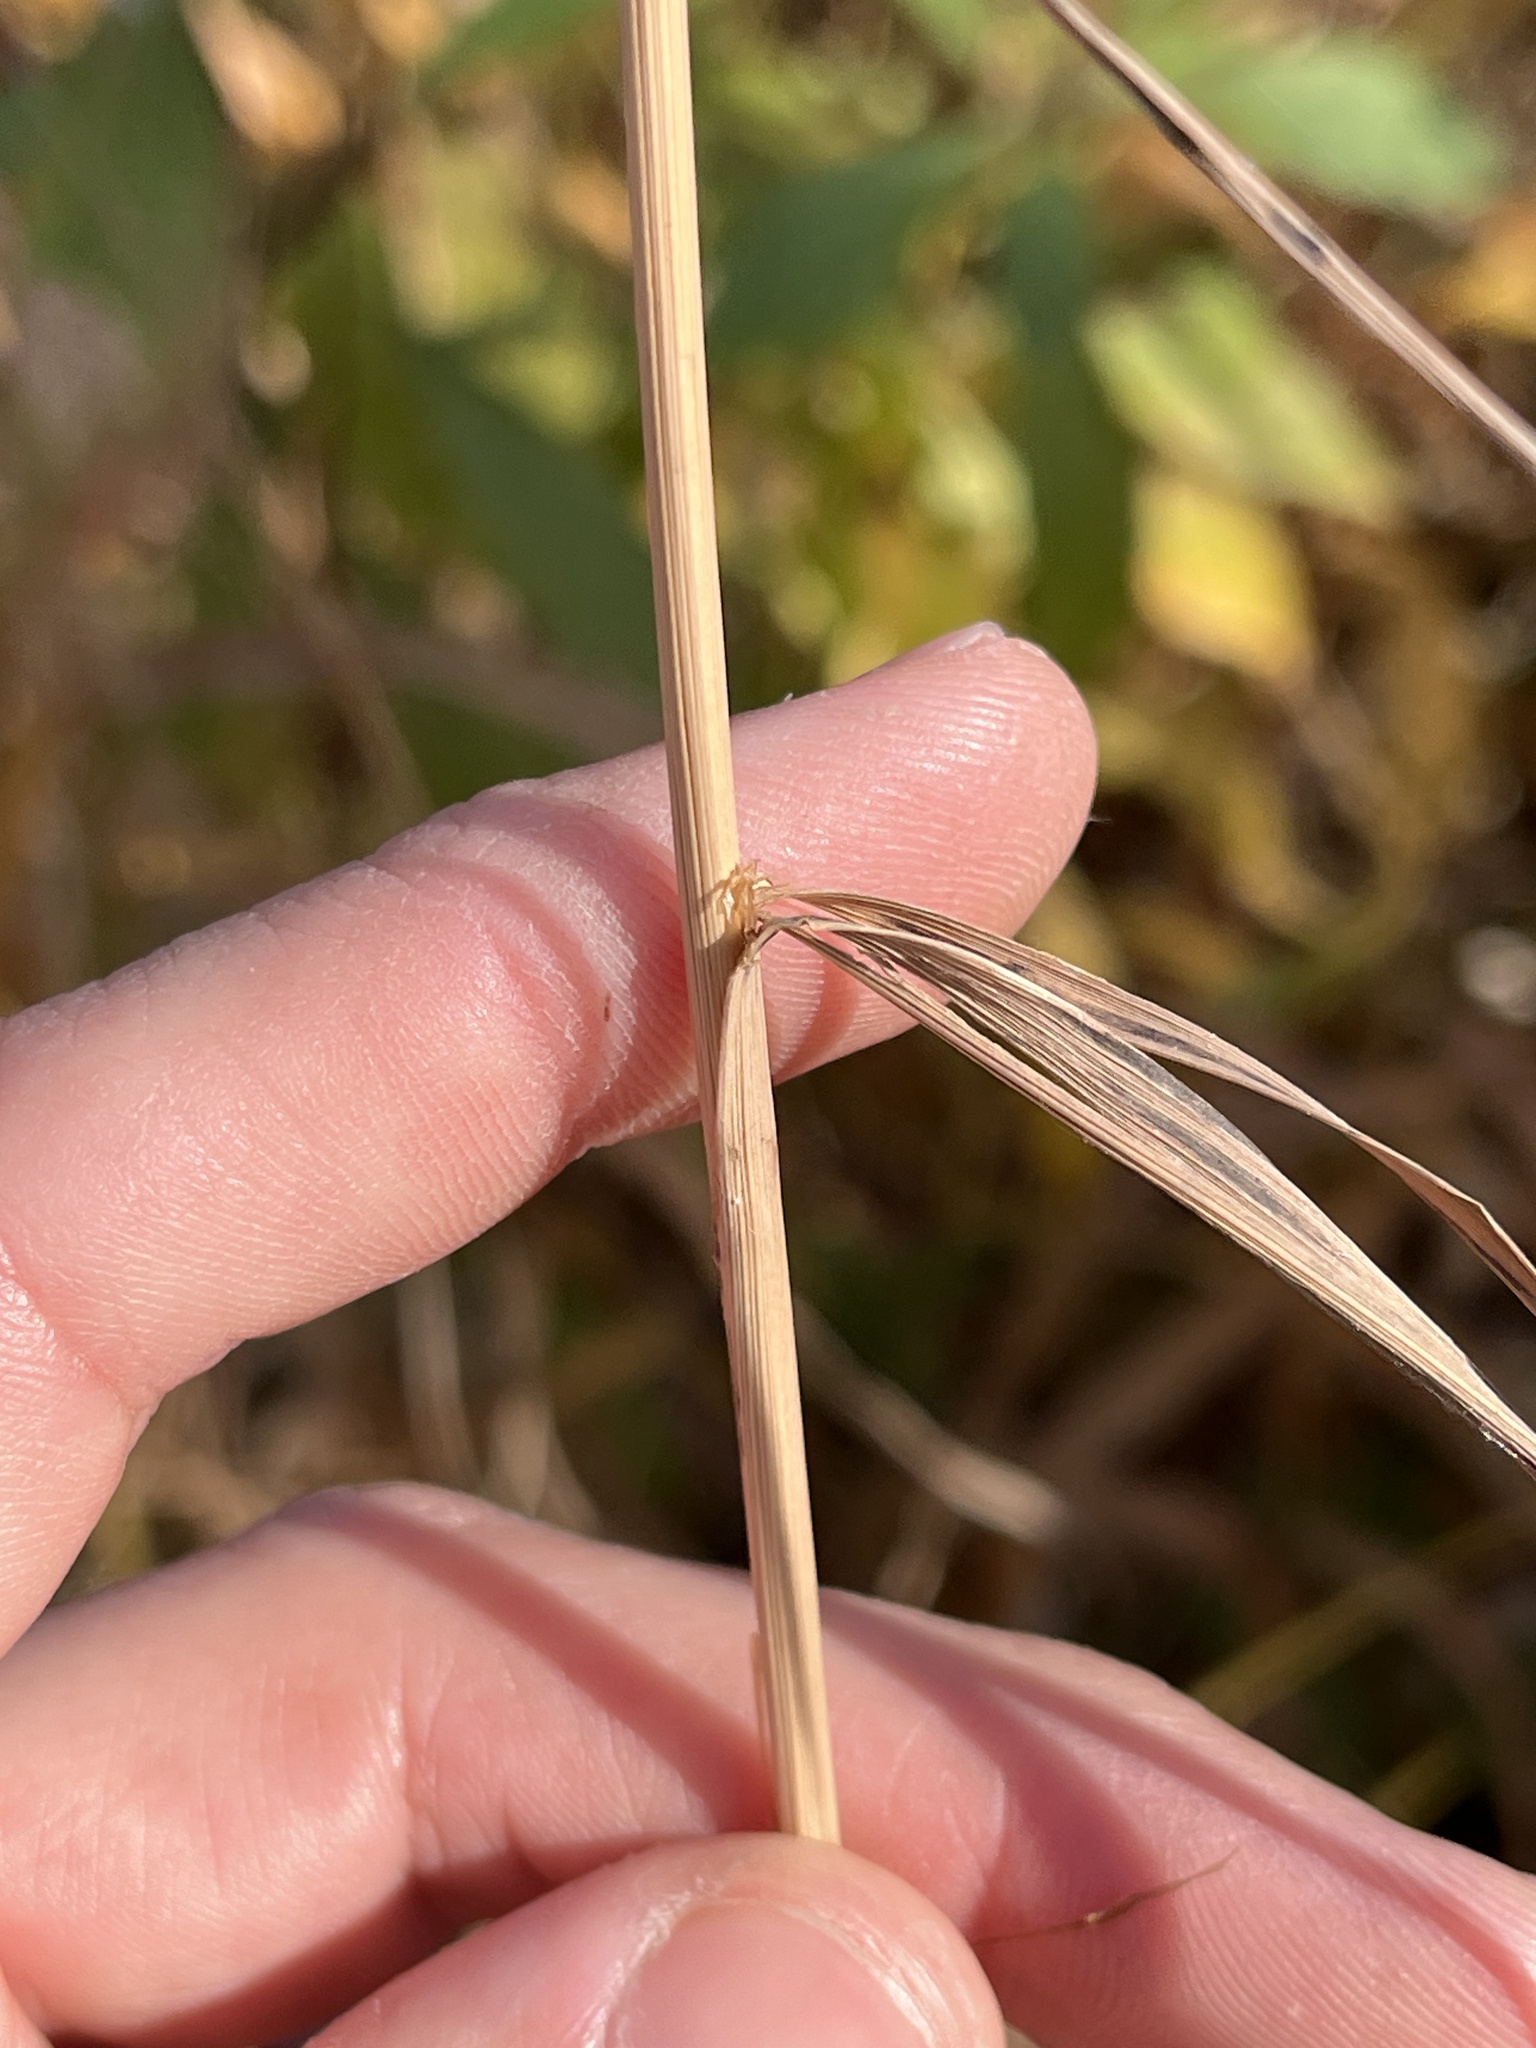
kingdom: Plantae
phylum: Tracheophyta
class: Liliopsida
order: Poales
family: Poaceae
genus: Cinna
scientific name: Cinna arundinacea
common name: Stout woodreed
